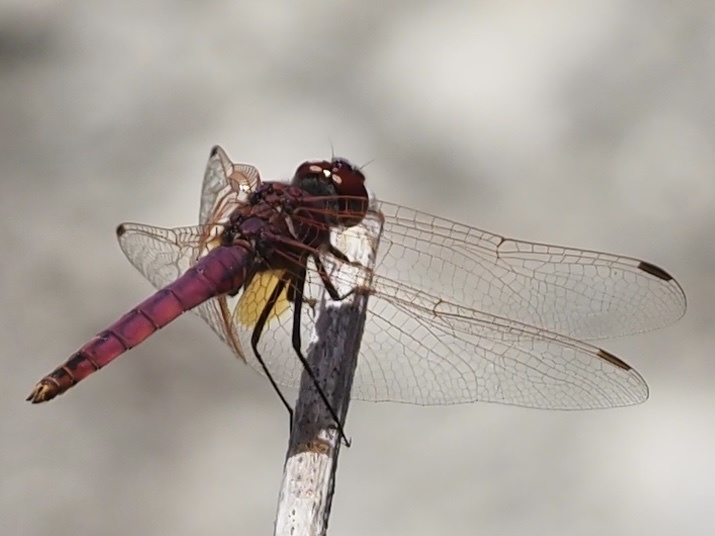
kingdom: Animalia
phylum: Arthropoda
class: Insecta
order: Odonata
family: Libellulidae
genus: Trithemis
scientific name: Trithemis annulata
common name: Violet dropwing
